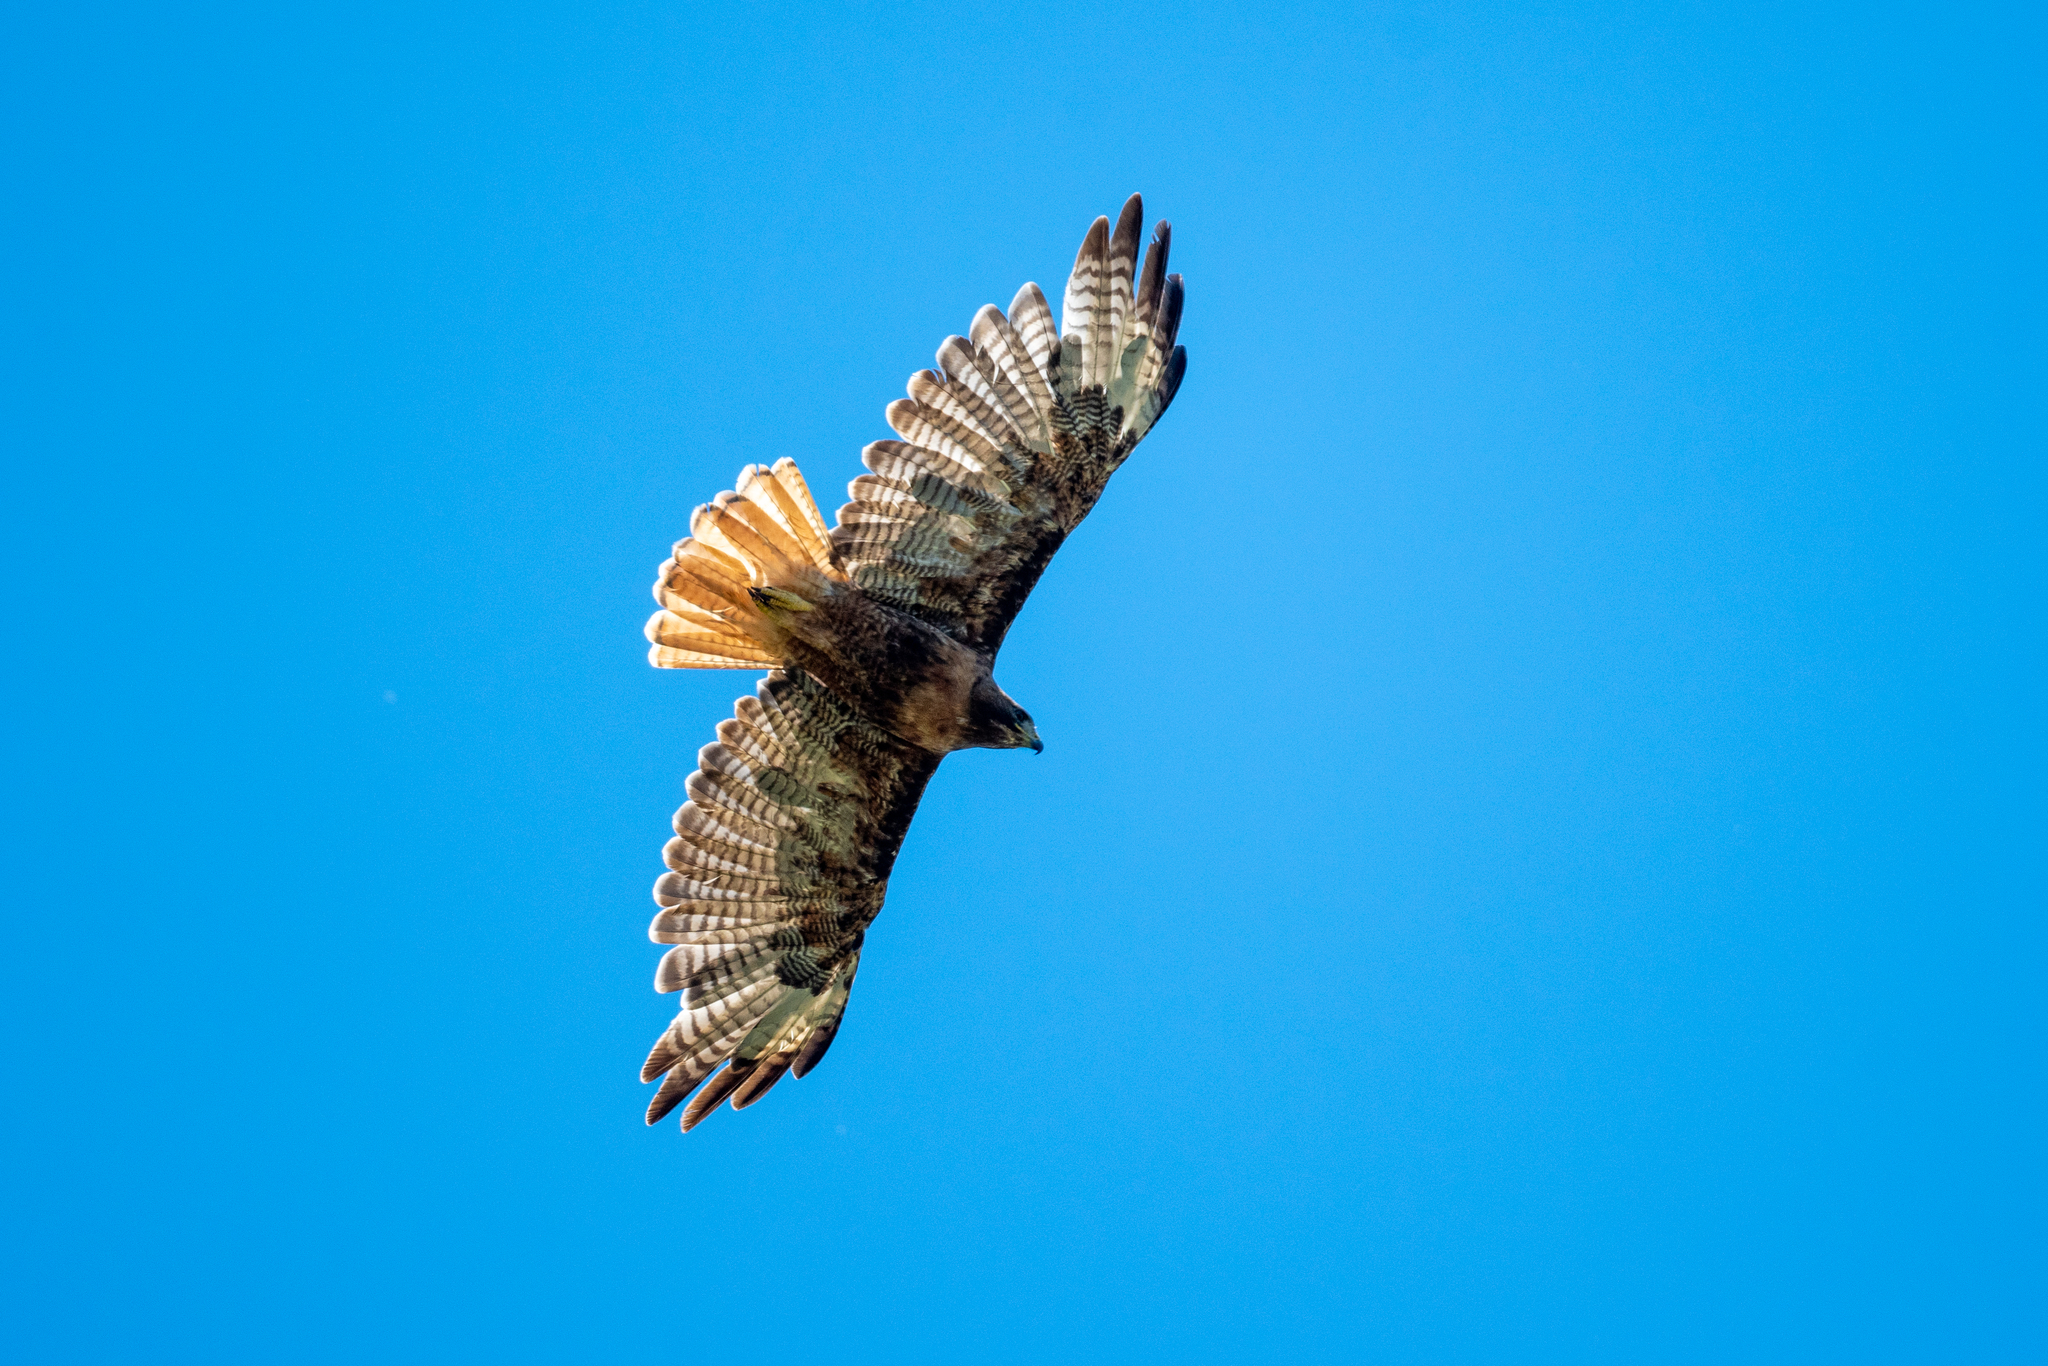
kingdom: Animalia
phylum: Chordata
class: Aves
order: Accipitriformes
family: Accipitridae
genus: Buteo
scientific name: Buteo jamaicensis
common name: Red-tailed hawk
